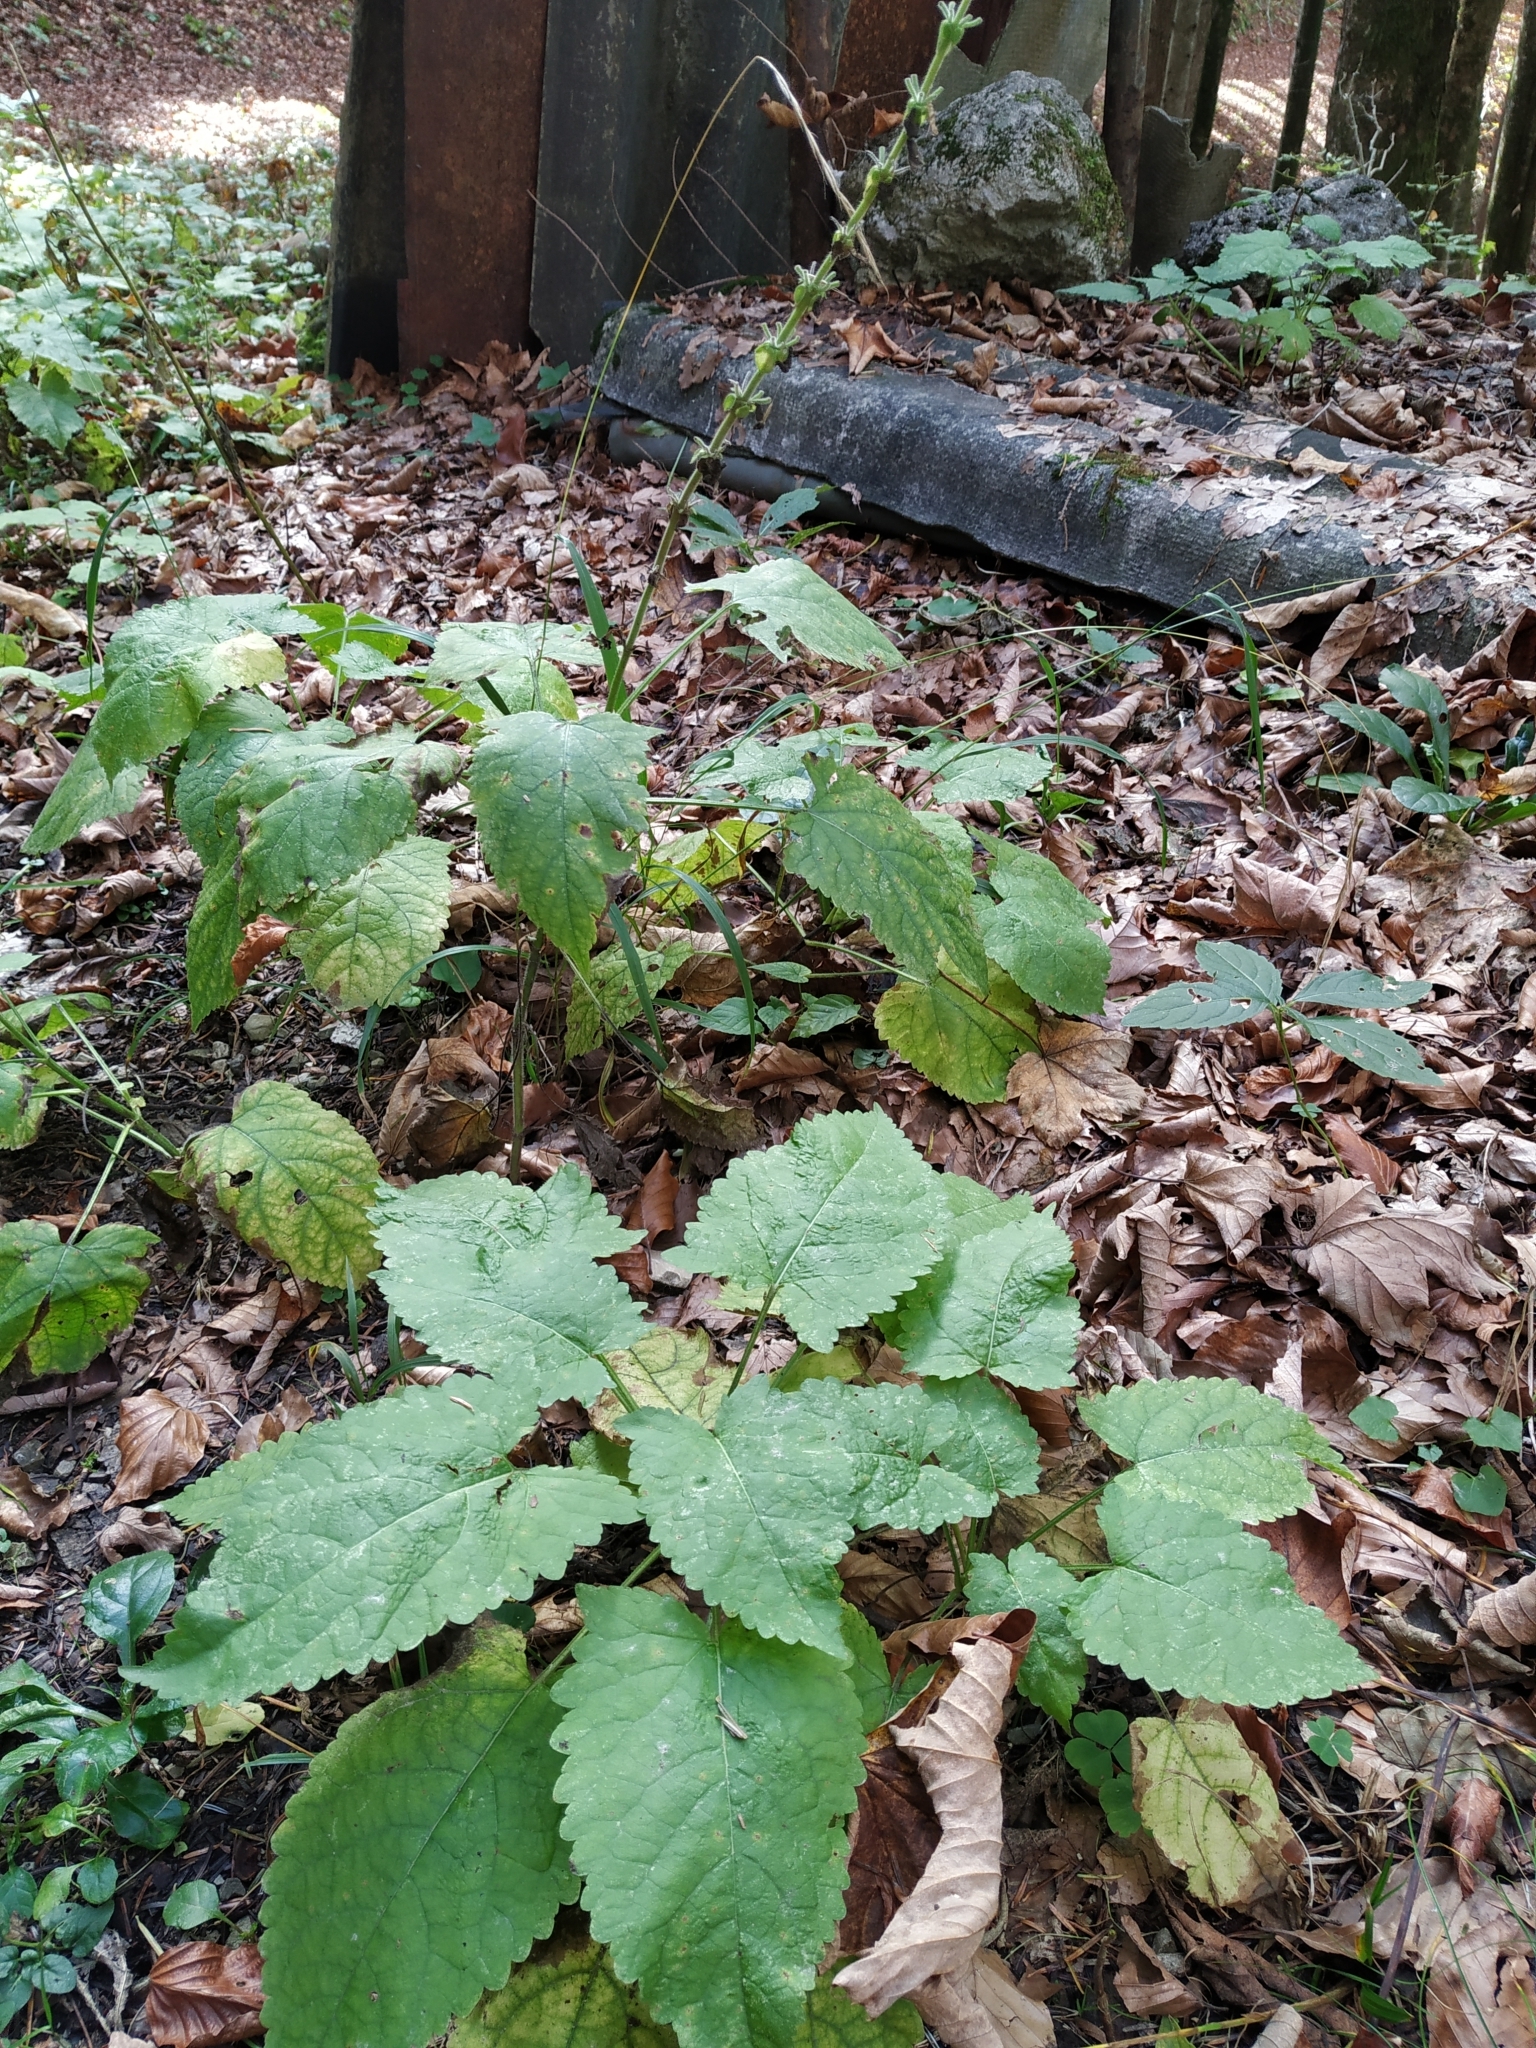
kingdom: Plantae
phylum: Tracheophyta
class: Magnoliopsida
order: Lamiales
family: Lamiaceae
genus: Salvia
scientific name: Salvia glutinosa
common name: Sticky clary
